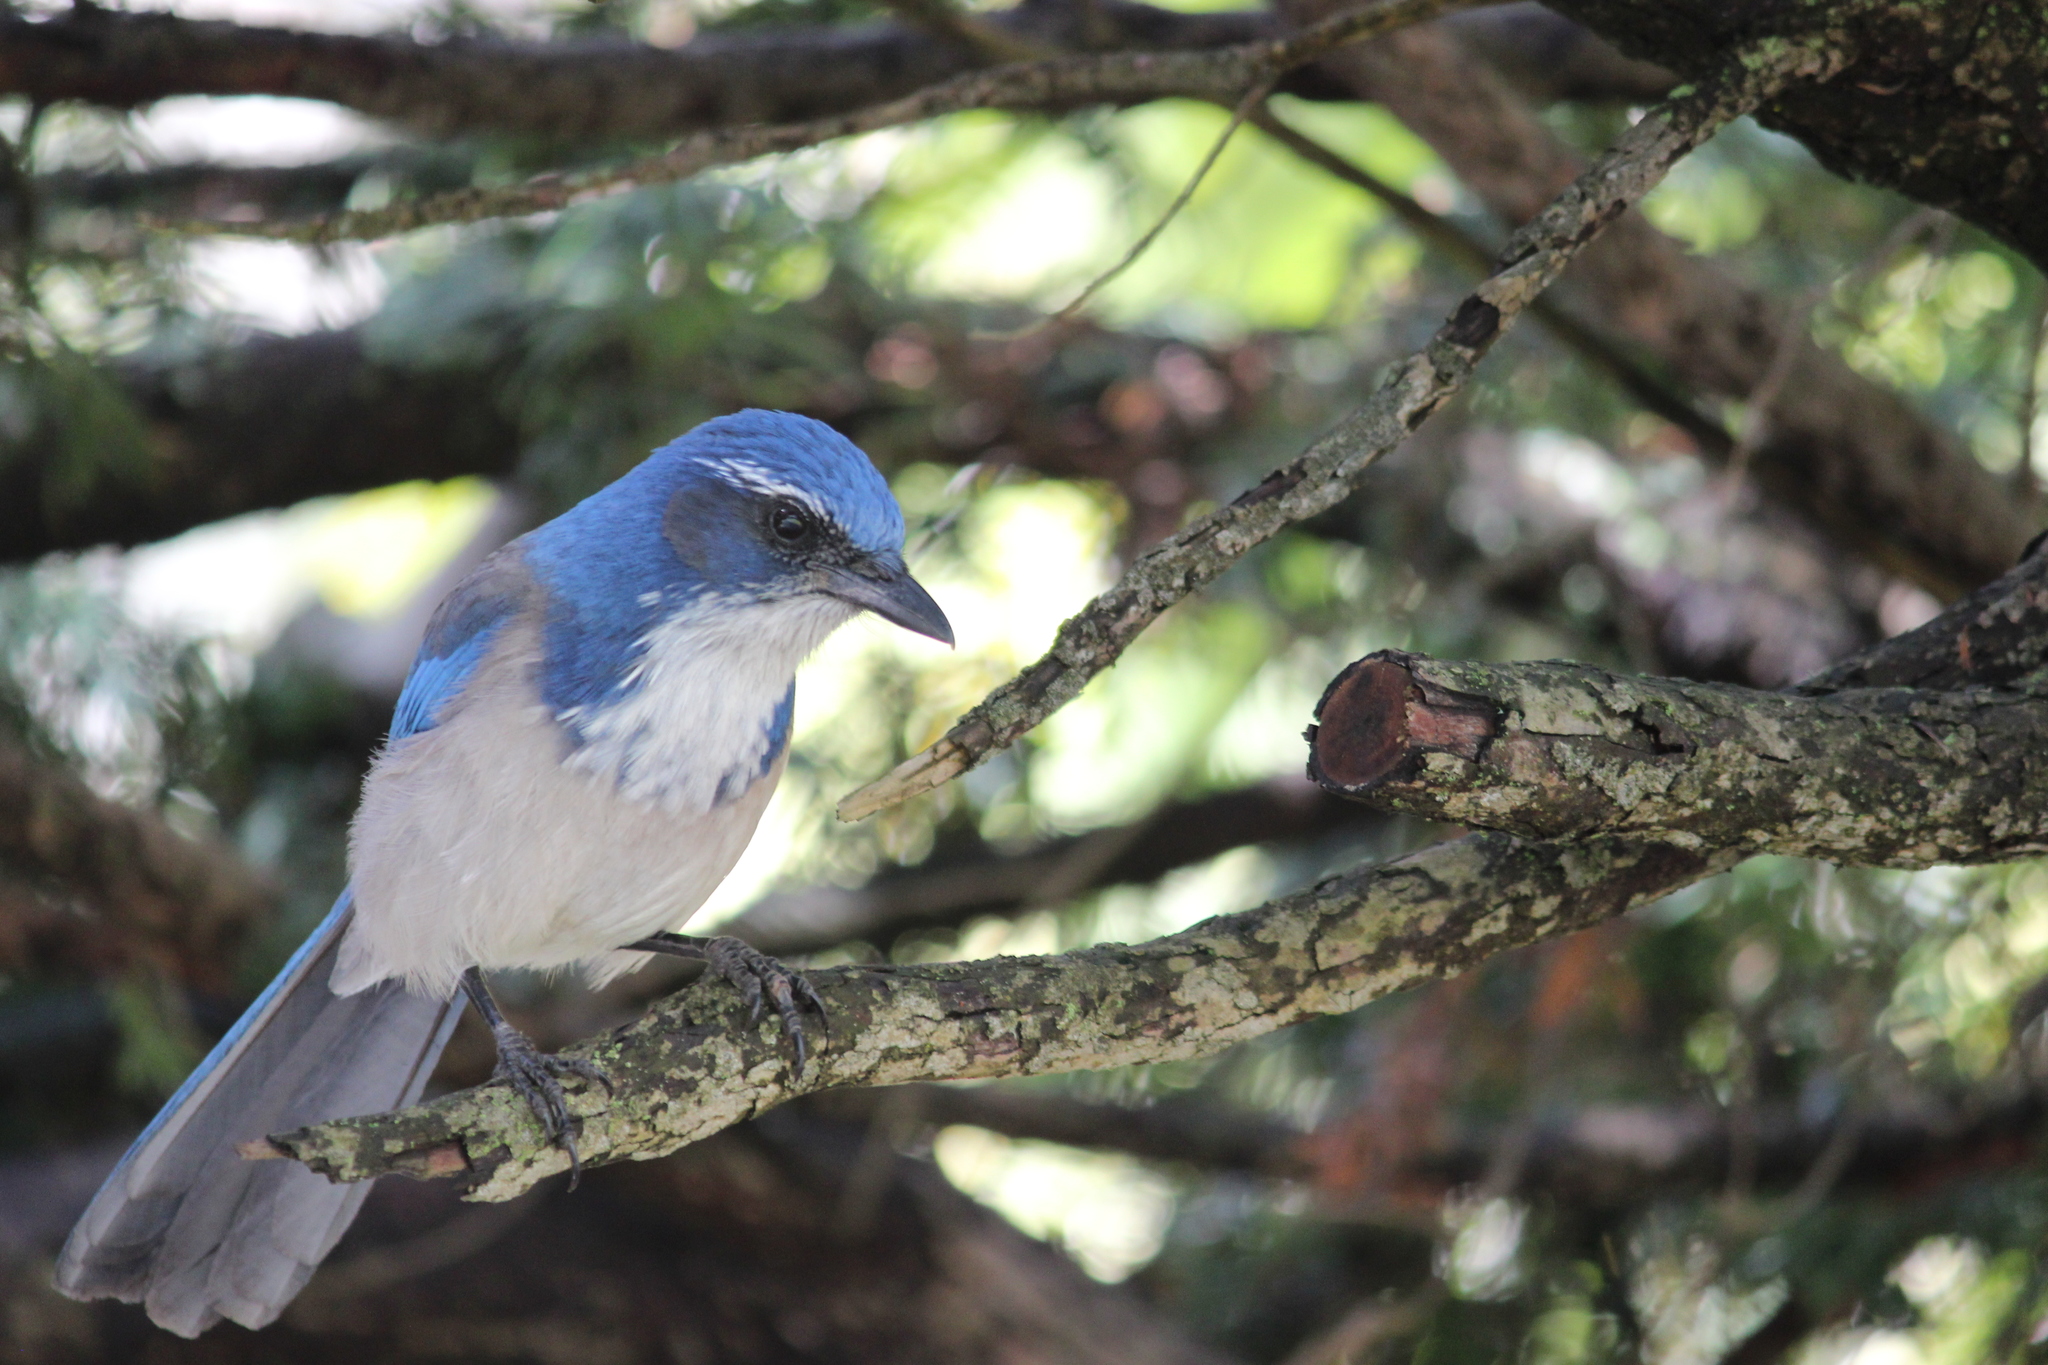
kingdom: Animalia
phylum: Chordata
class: Aves
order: Passeriformes
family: Corvidae
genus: Aphelocoma
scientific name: Aphelocoma californica
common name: California scrub-jay
